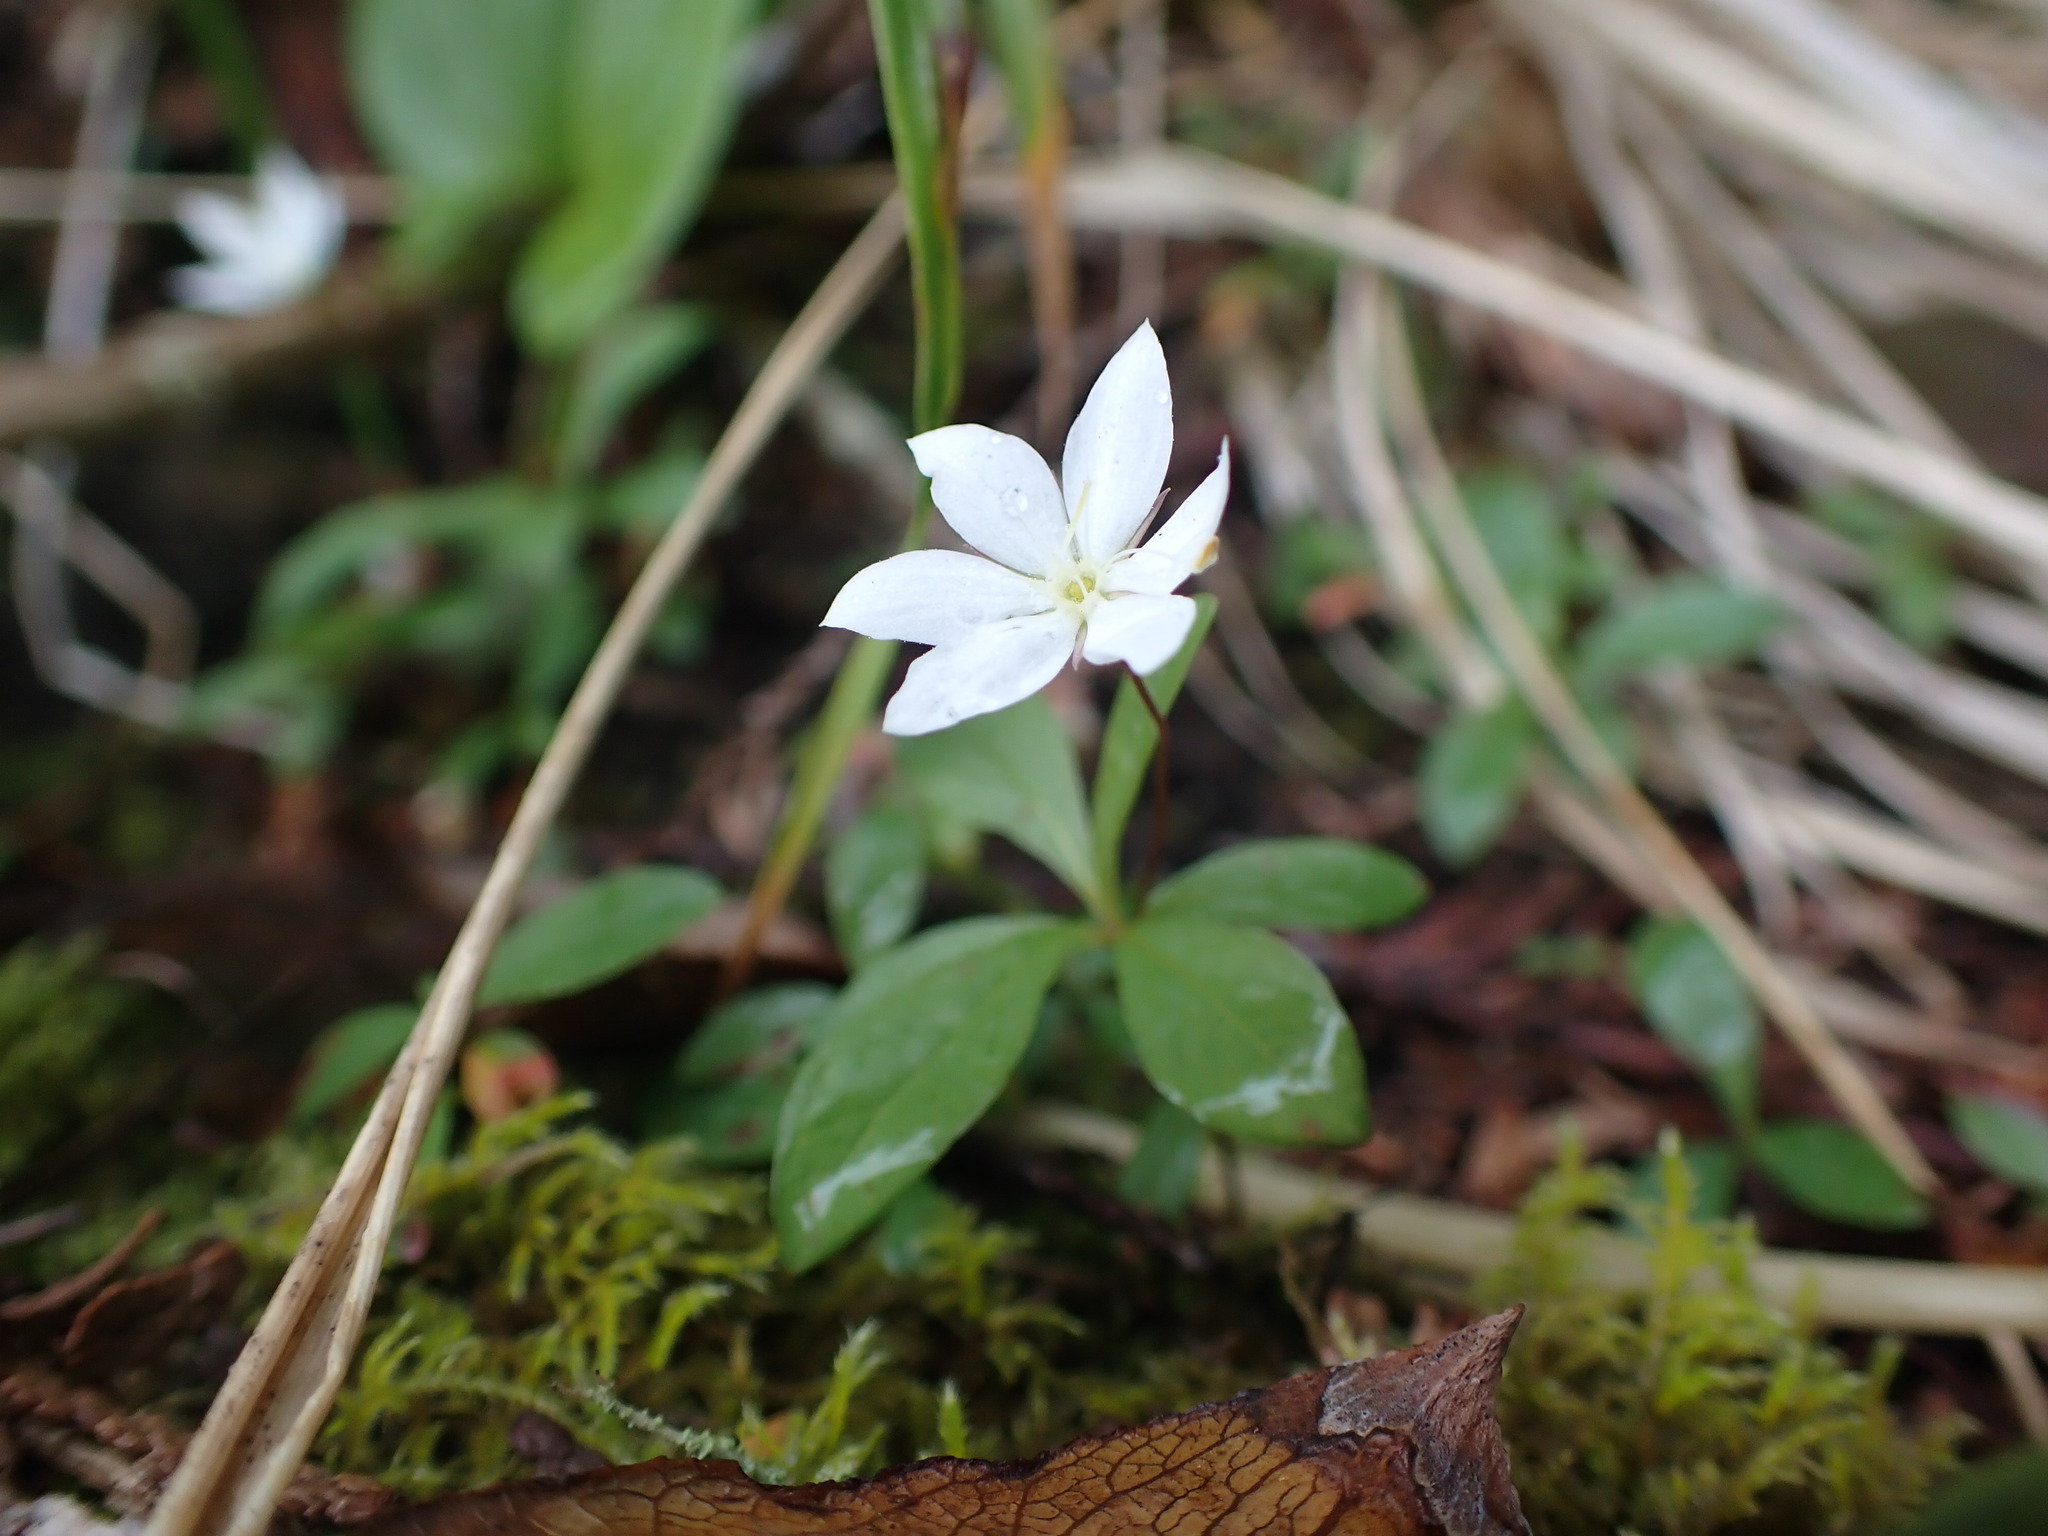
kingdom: Plantae
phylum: Tracheophyta
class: Magnoliopsida
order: Ericales
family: Primulaceae
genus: Lysimachia
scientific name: Lysimachia europaea
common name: Arctic starflower
